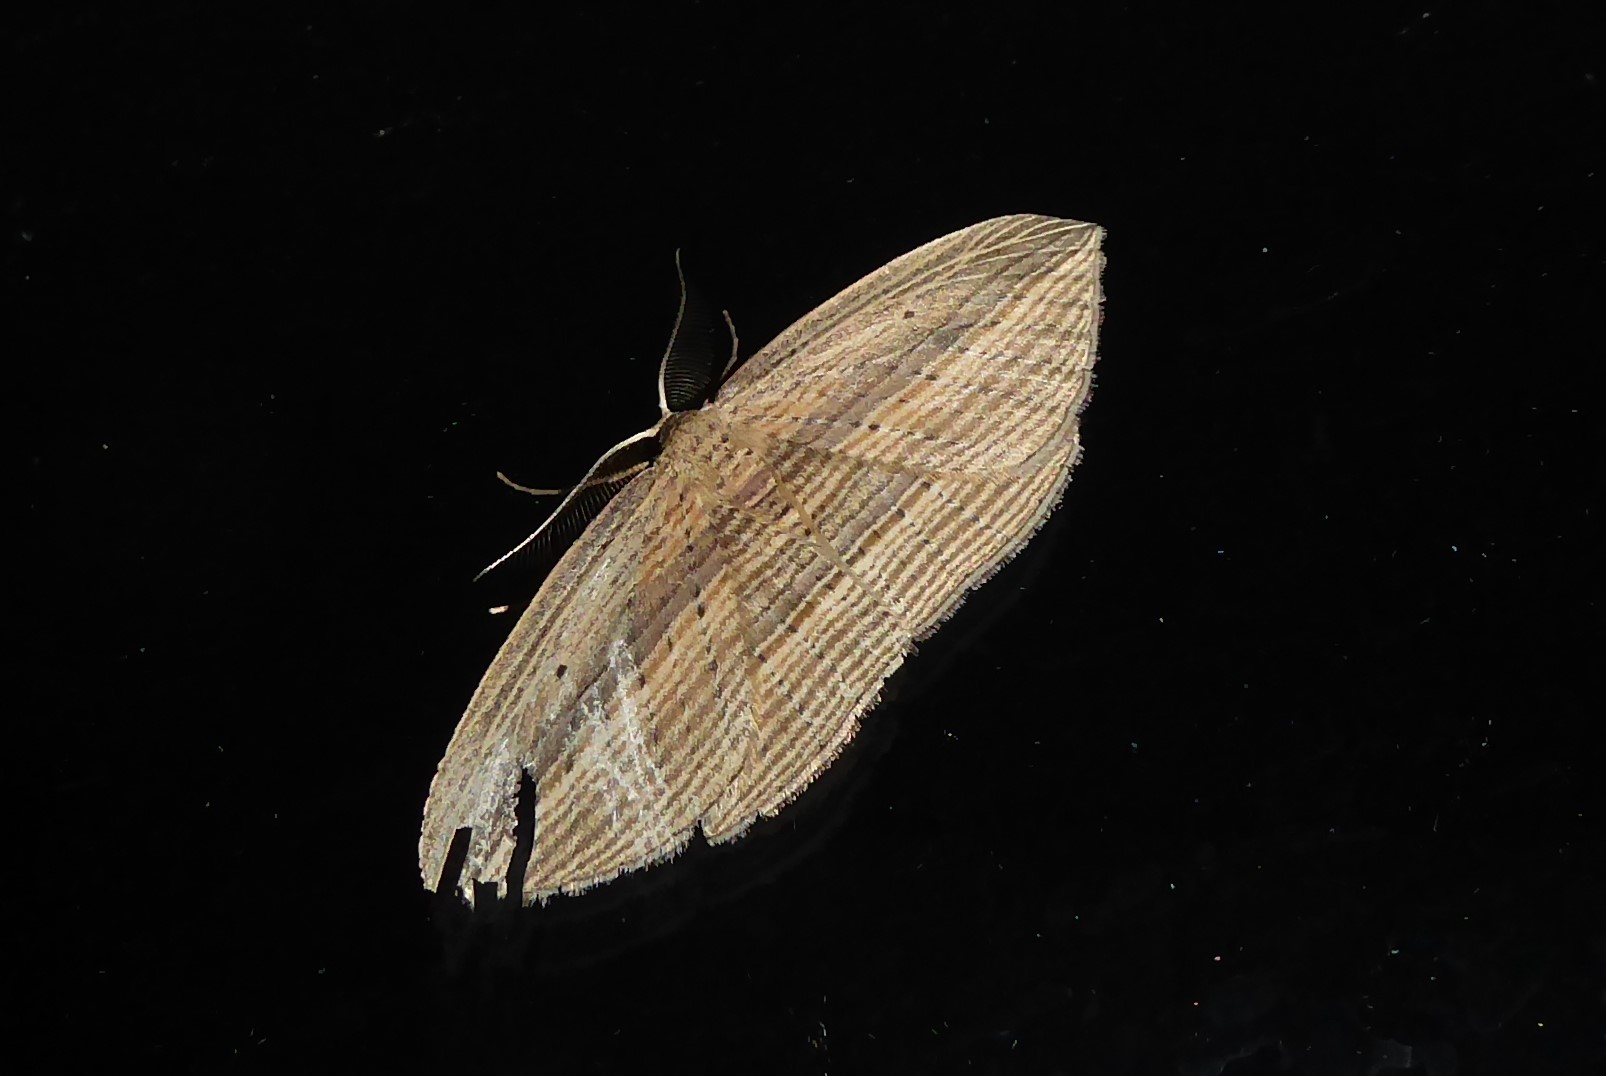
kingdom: Animalia
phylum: Arthropoda
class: Insecta
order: Lepidoptera
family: Geometridae
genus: Epiphryne
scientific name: Epiphryne verriculata
